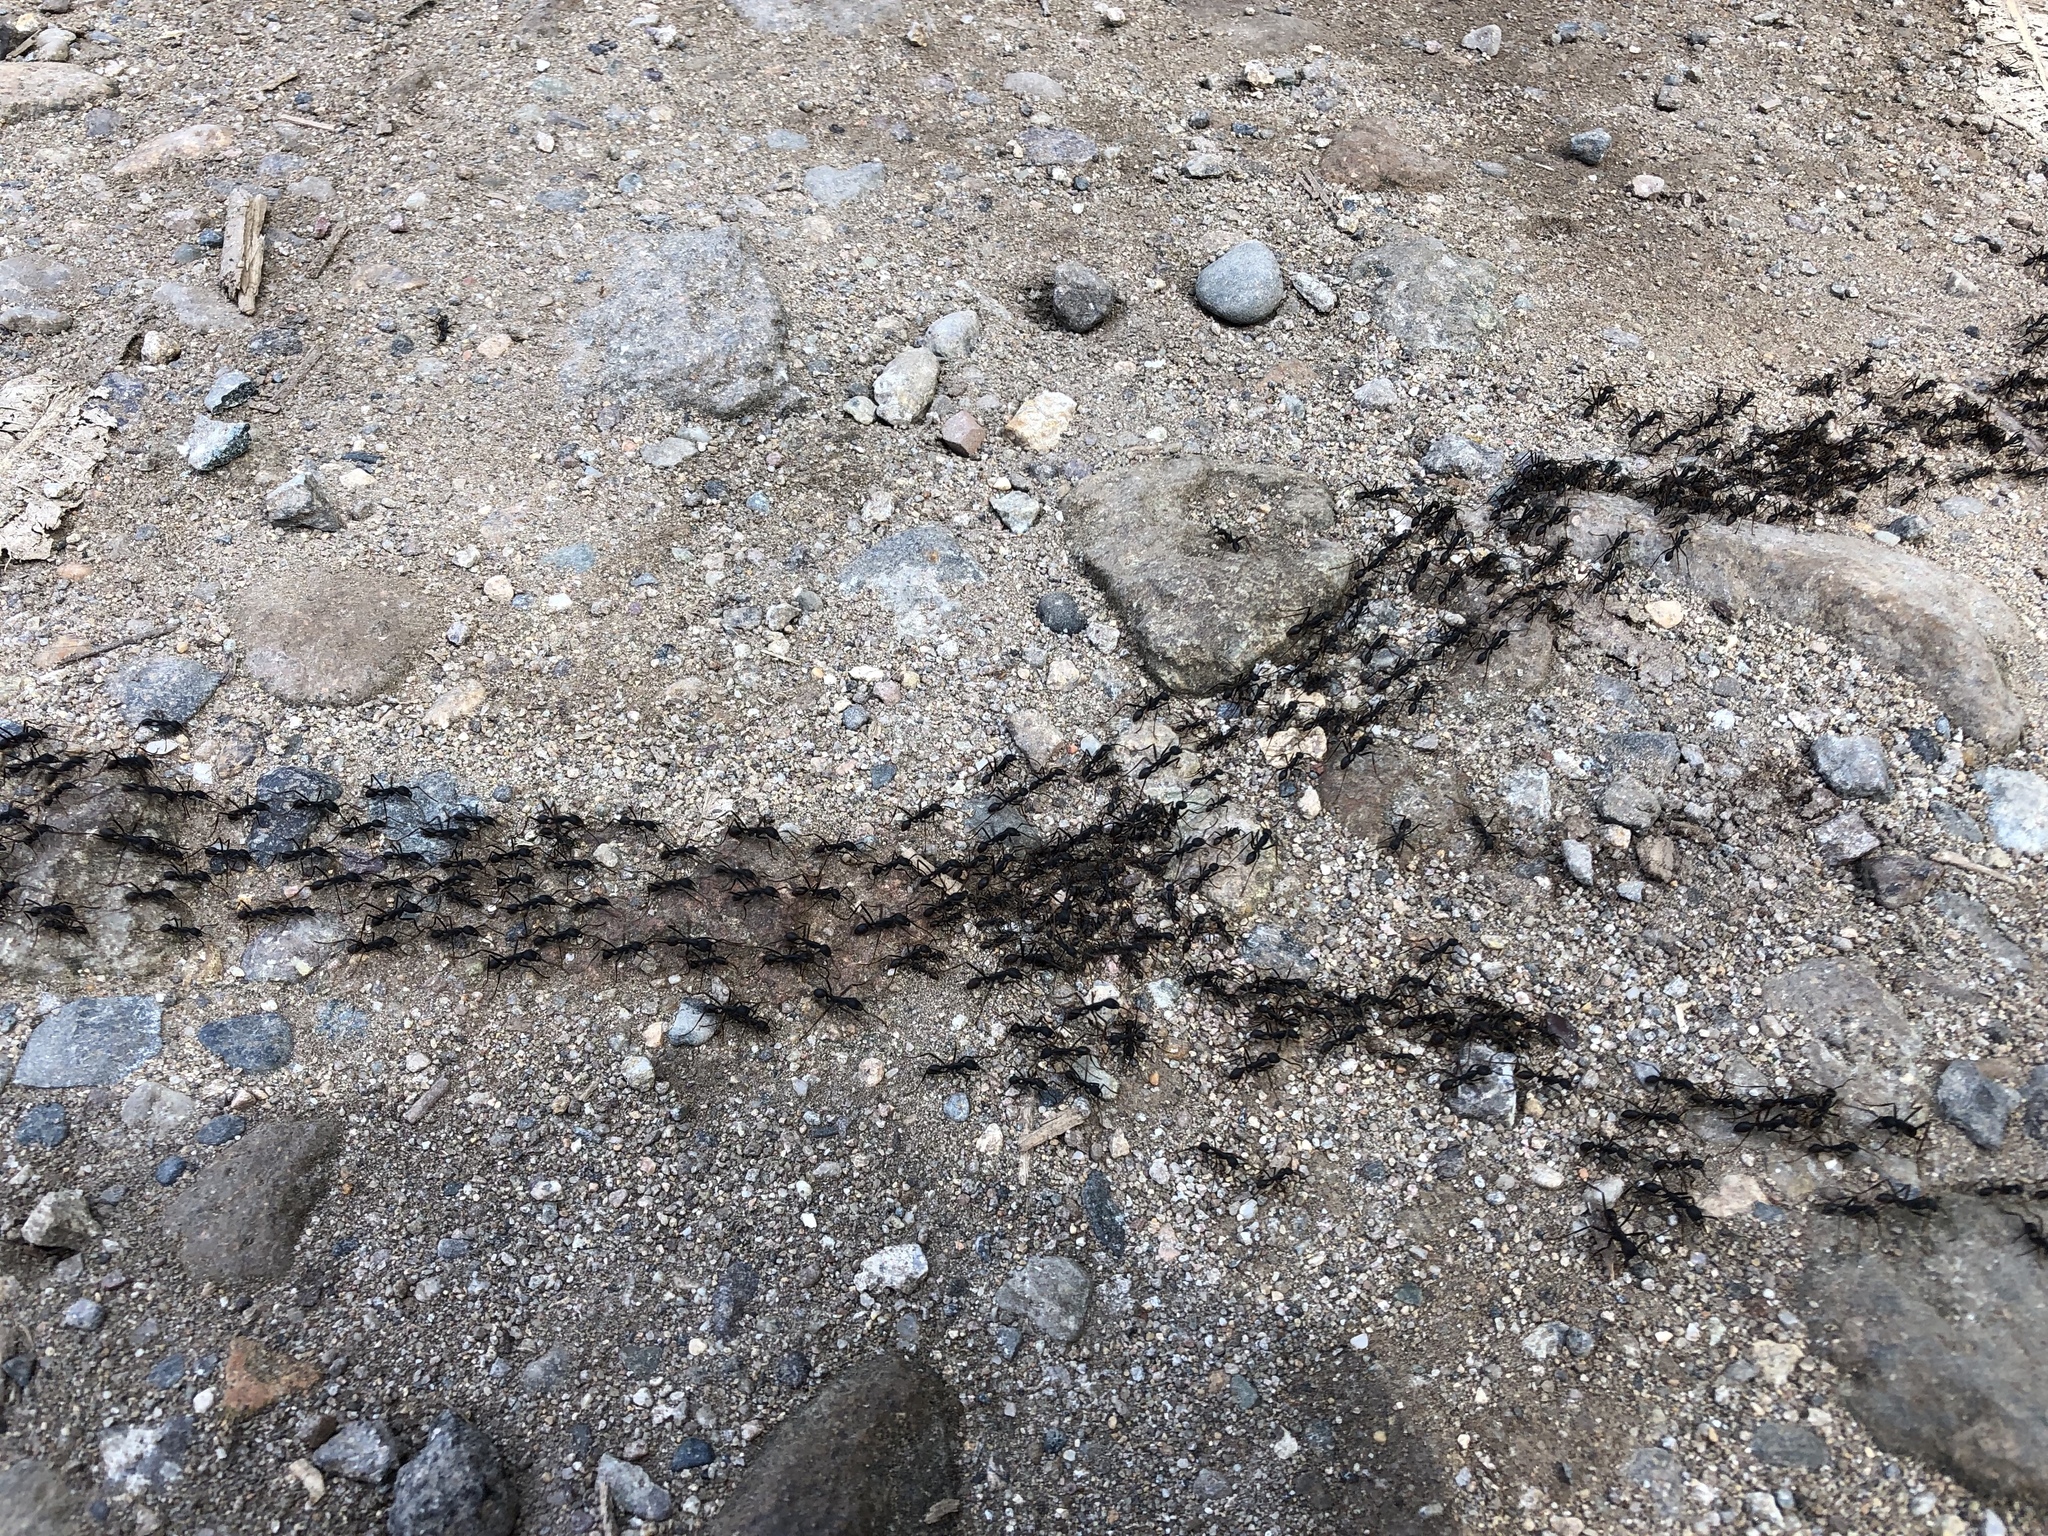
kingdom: Animalia
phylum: Arthropoda
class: Insecta
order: Hymenoptera
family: Formicidae
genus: Eciton
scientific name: Eciton burchellii
